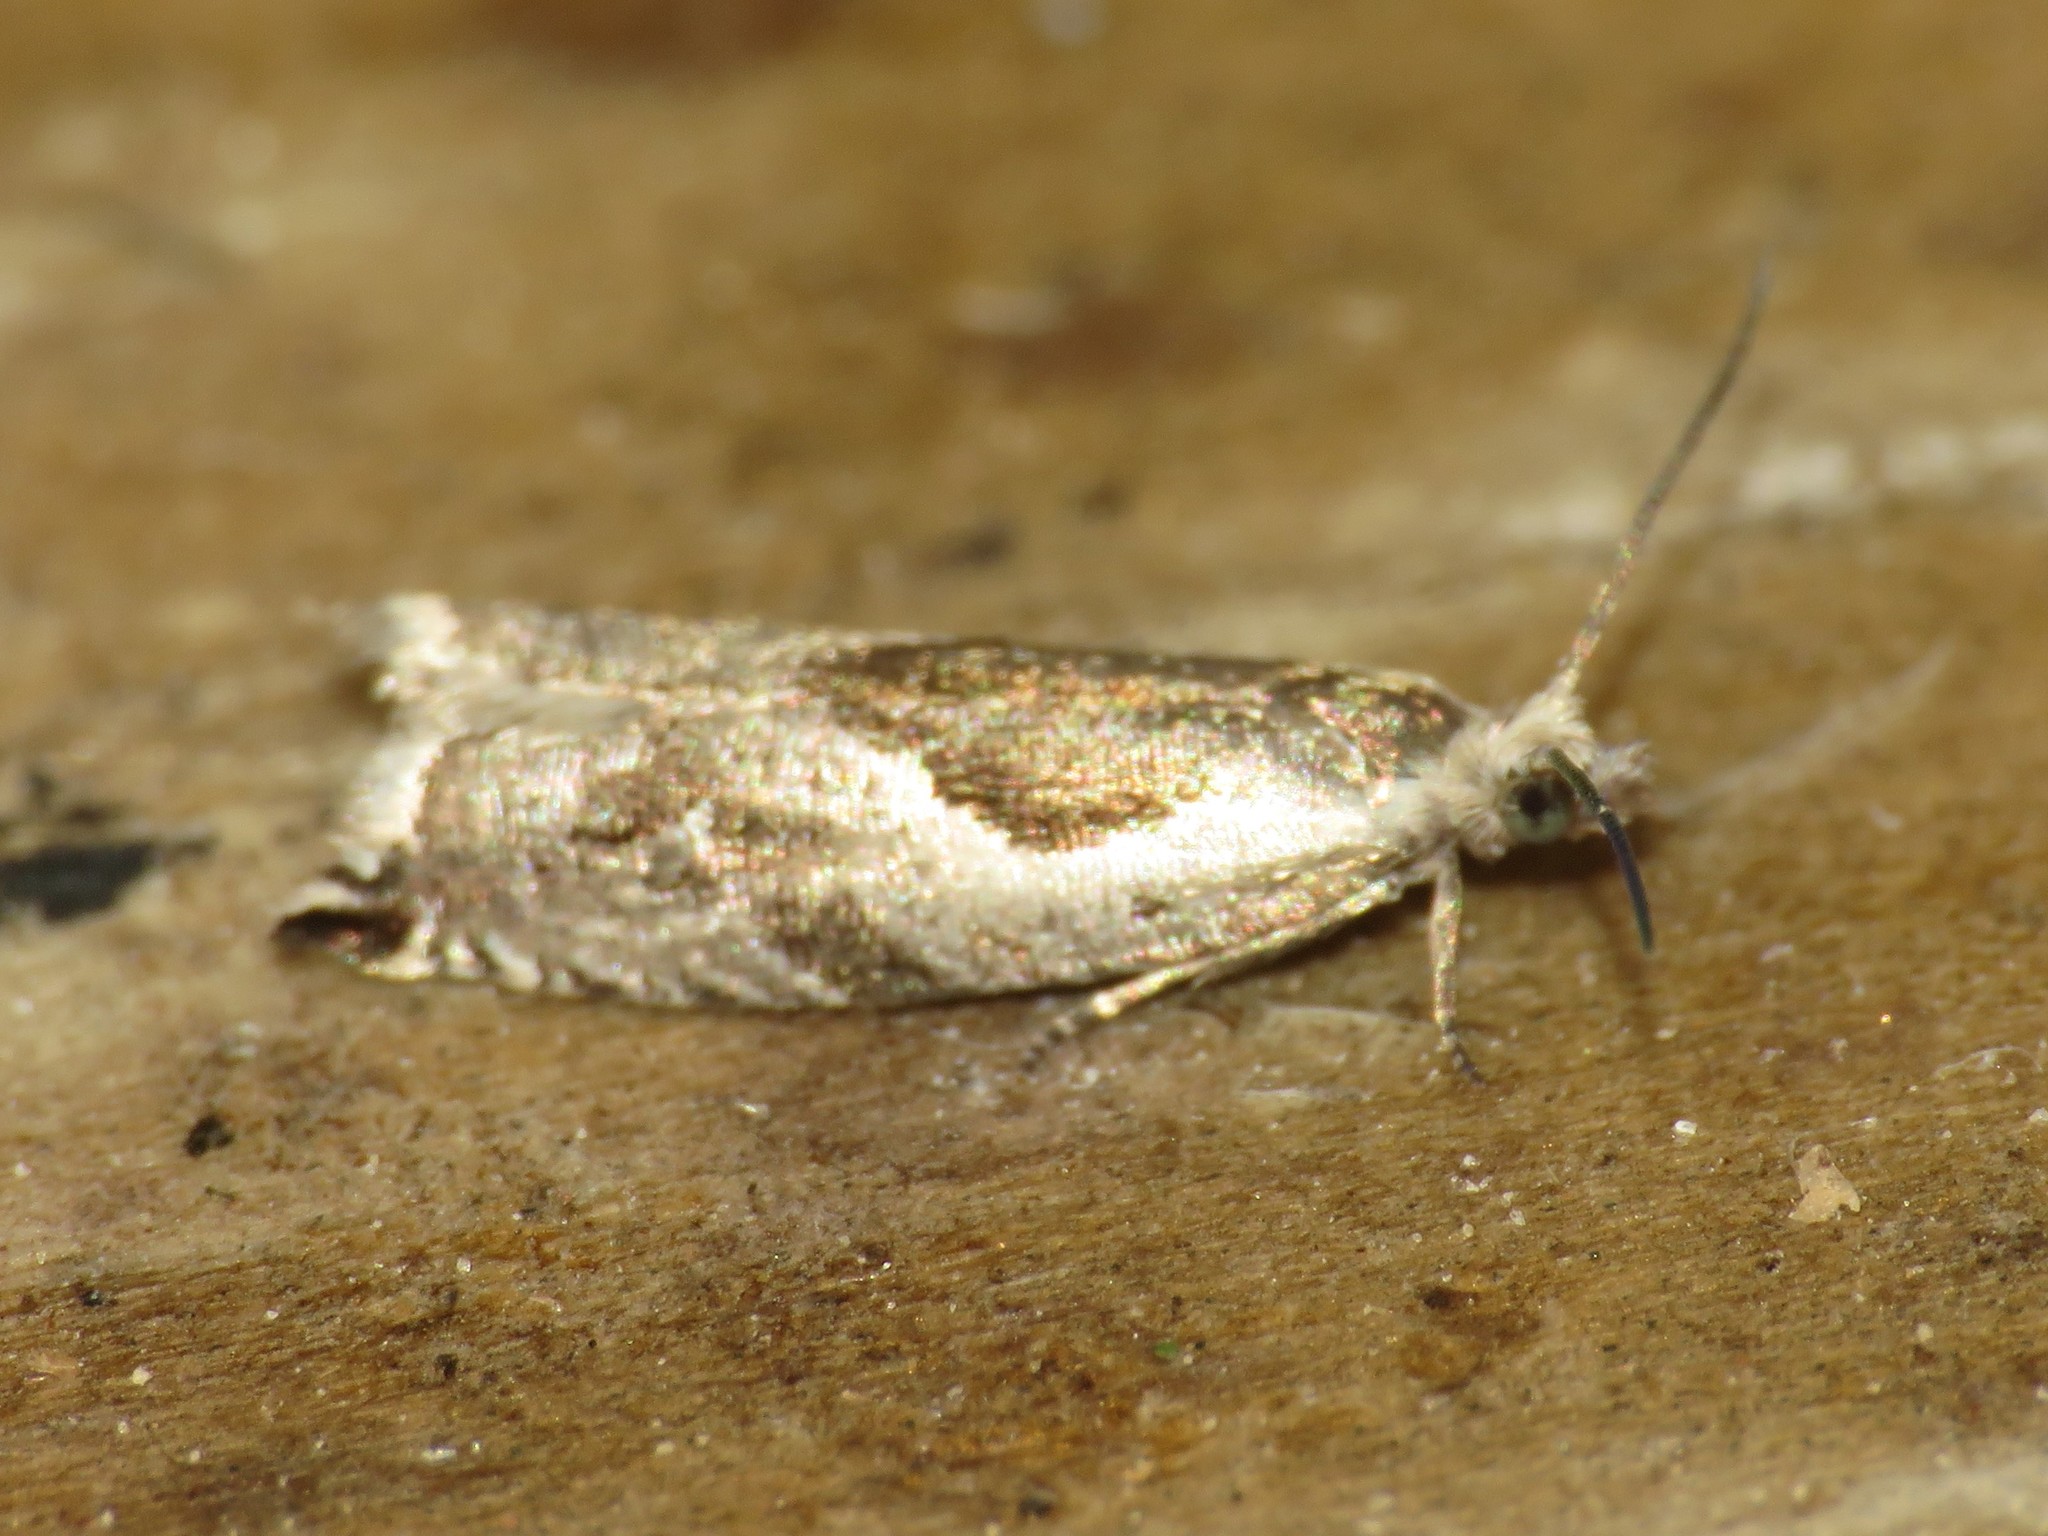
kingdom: Animalia
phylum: Arthropoda
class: Insecta
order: Lepidoptera
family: Tortricidae
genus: Ancylis
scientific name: Ancylis sheppardana
